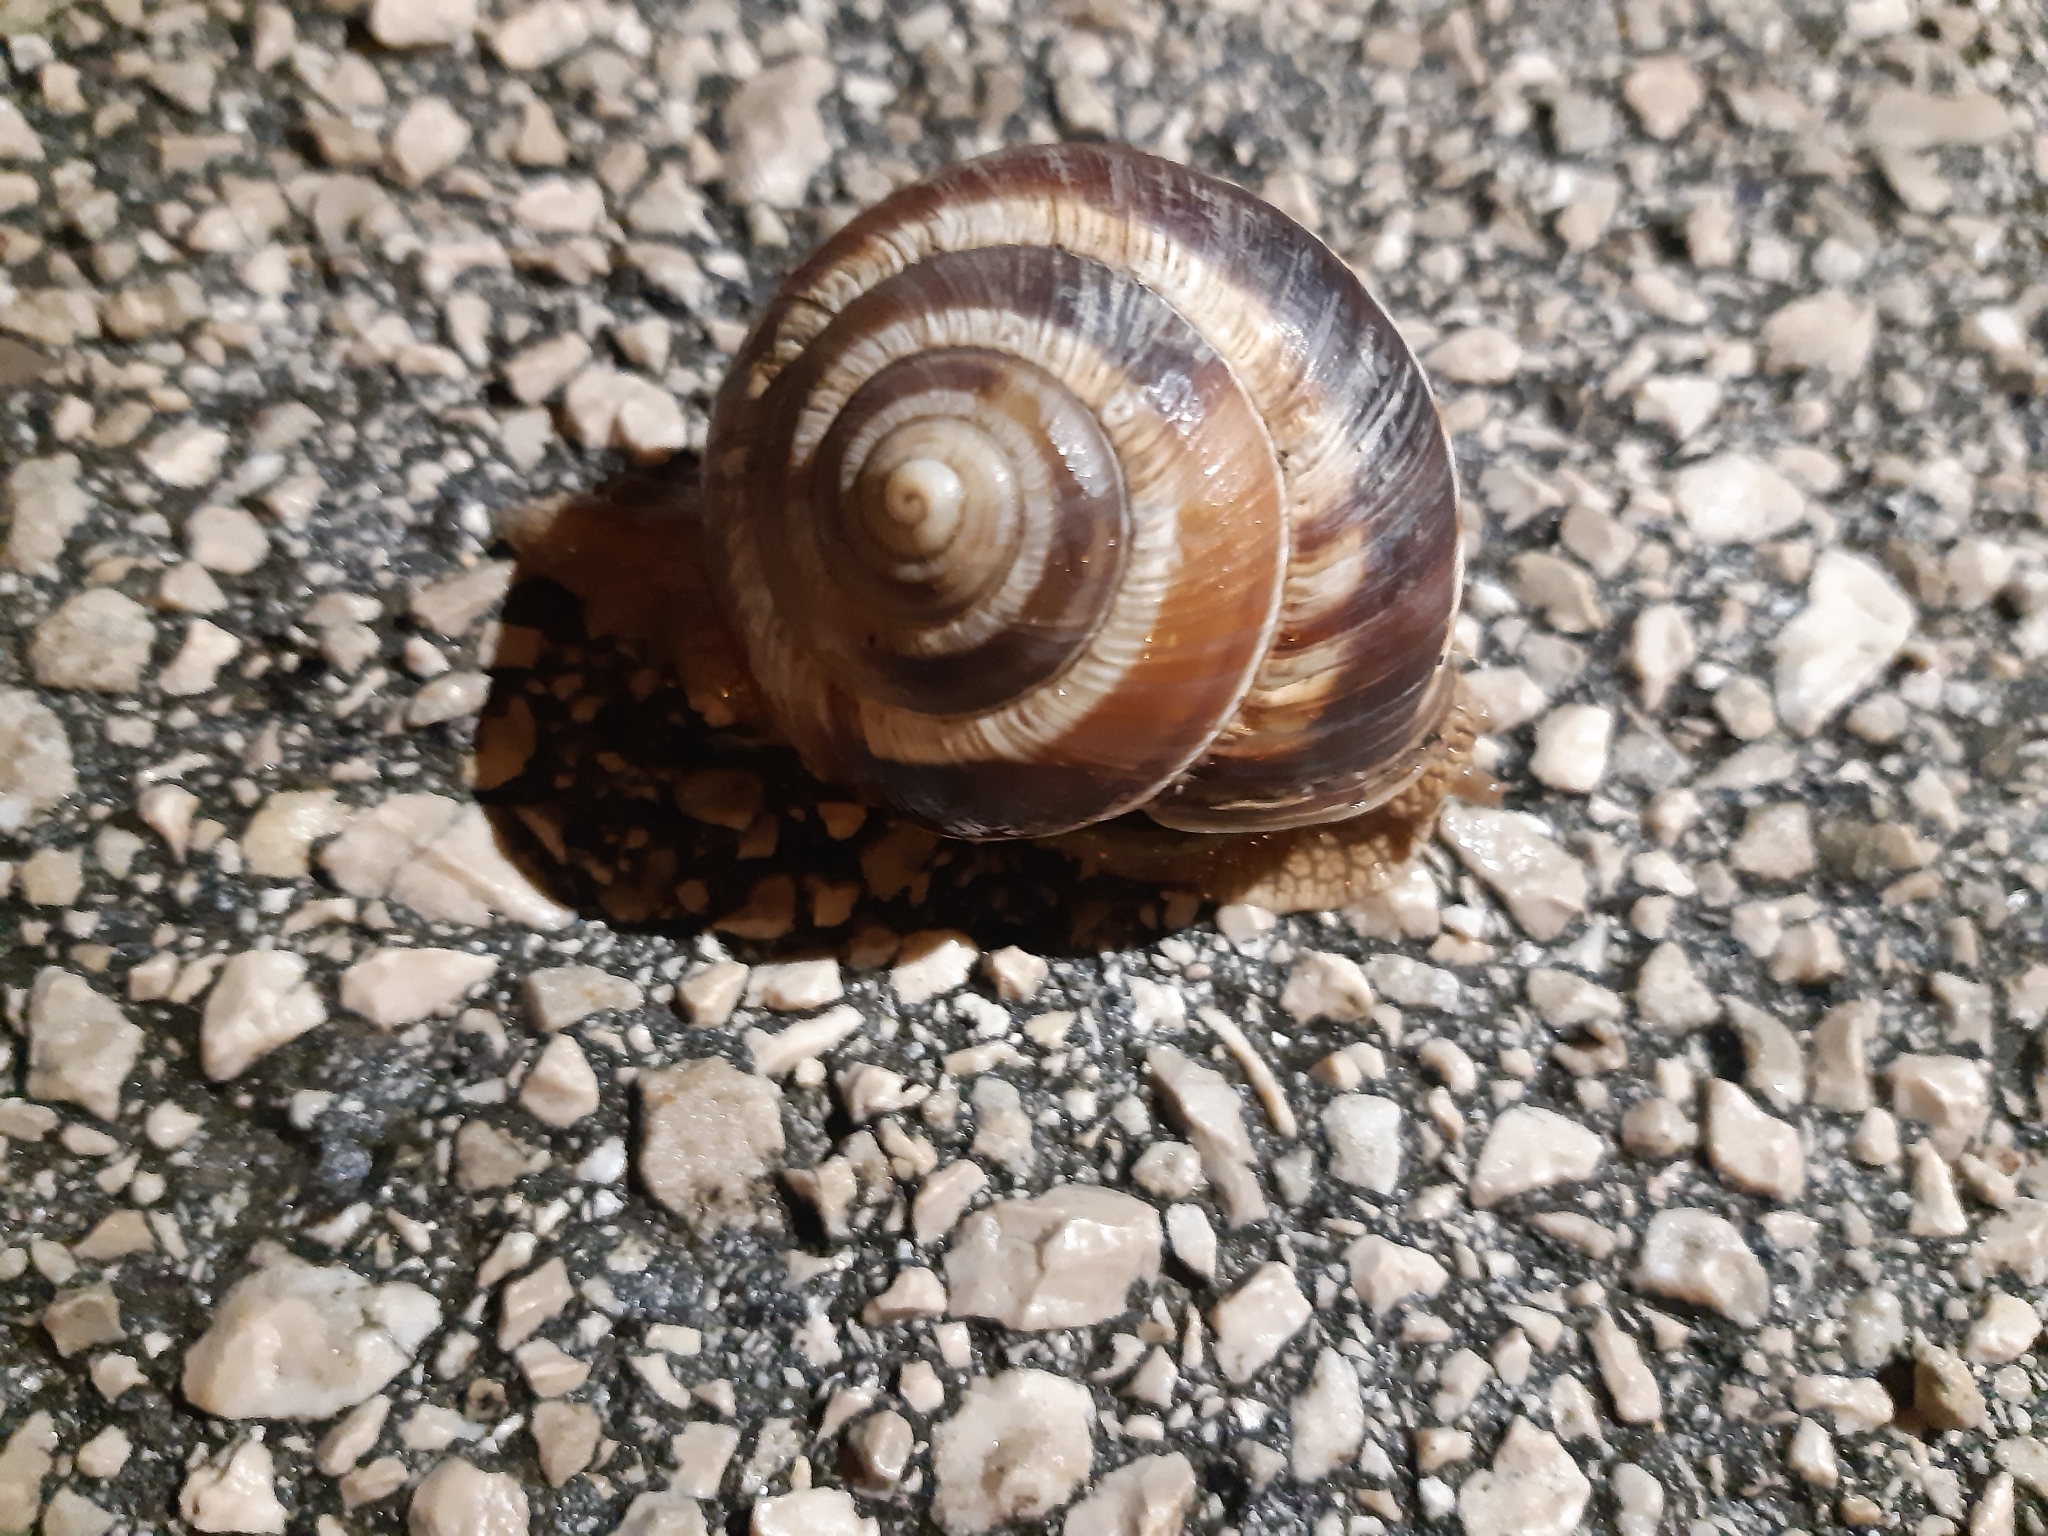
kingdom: Animalia
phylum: Mollusca
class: Gastropoda
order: Stylommatophora
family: Helicidae
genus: Helix
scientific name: Helix lucorum
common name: Turkish snail
